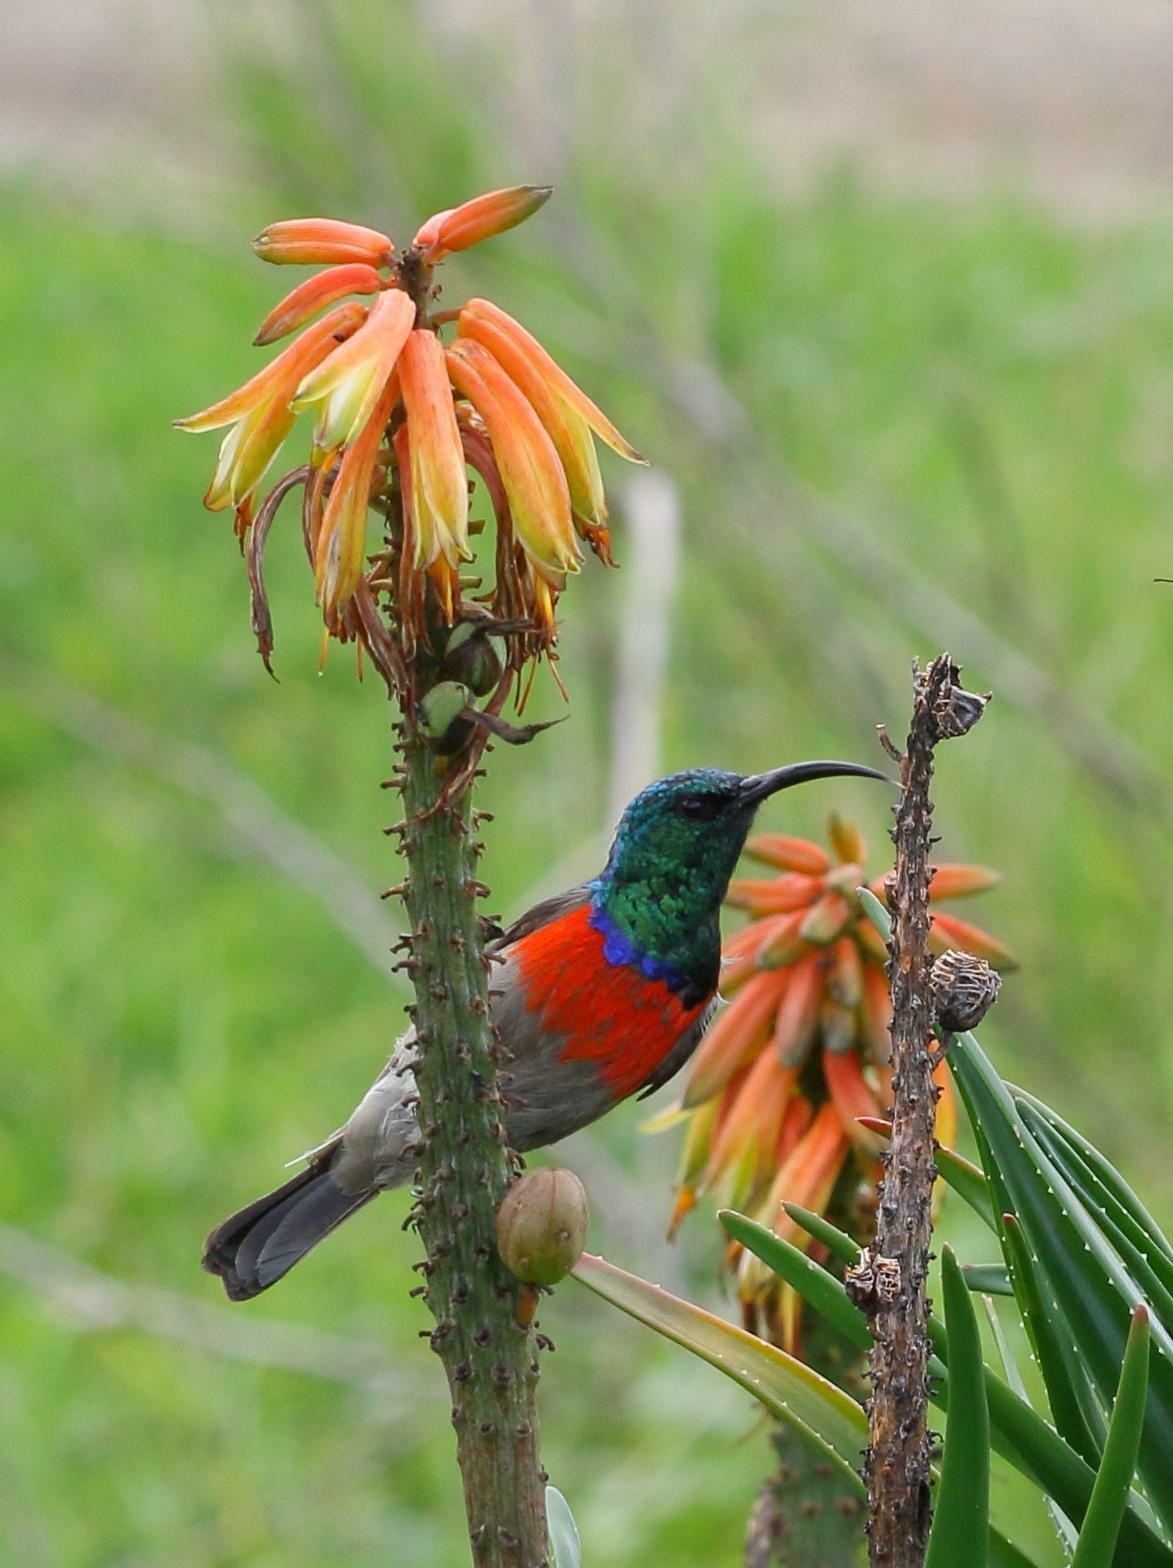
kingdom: Animalia
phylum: Chordata
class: Aves
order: Passeriformes
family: Nectariniidae
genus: Cinnyris
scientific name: Cinnyris afer
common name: Greater double-collared sunbird
